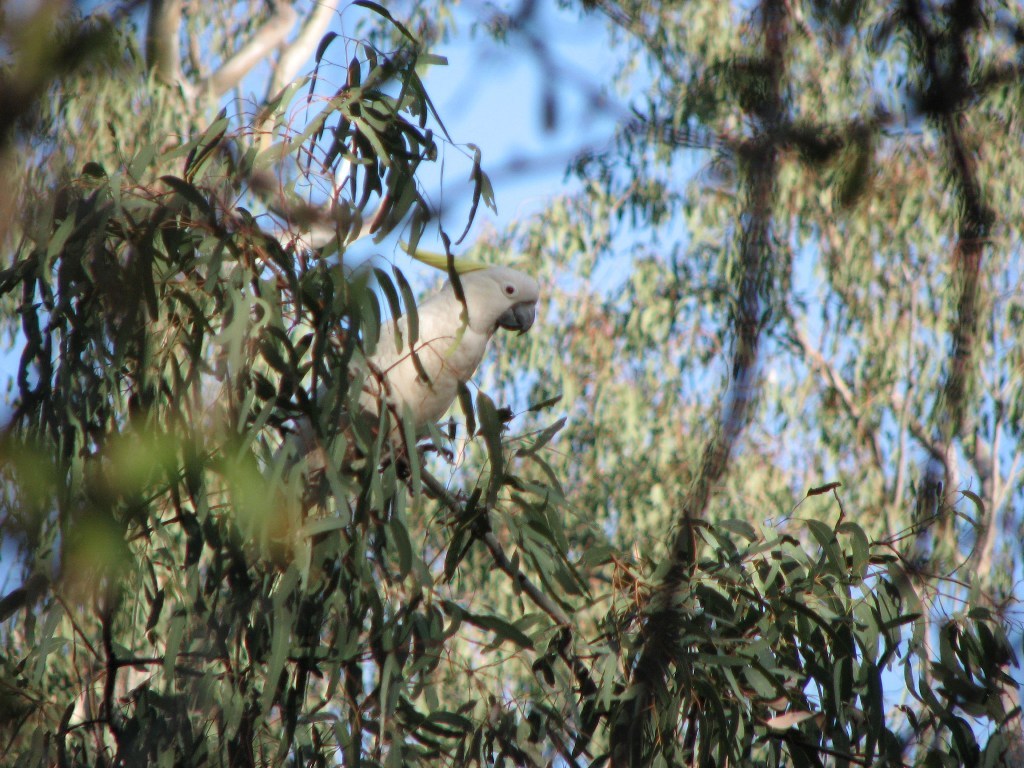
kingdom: Animalia
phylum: Chordata
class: Aves
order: Psittaciformes
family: Psittacidae
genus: Cacatua
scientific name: Cacatua galerita
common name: Sulphur-crested cockatoo
